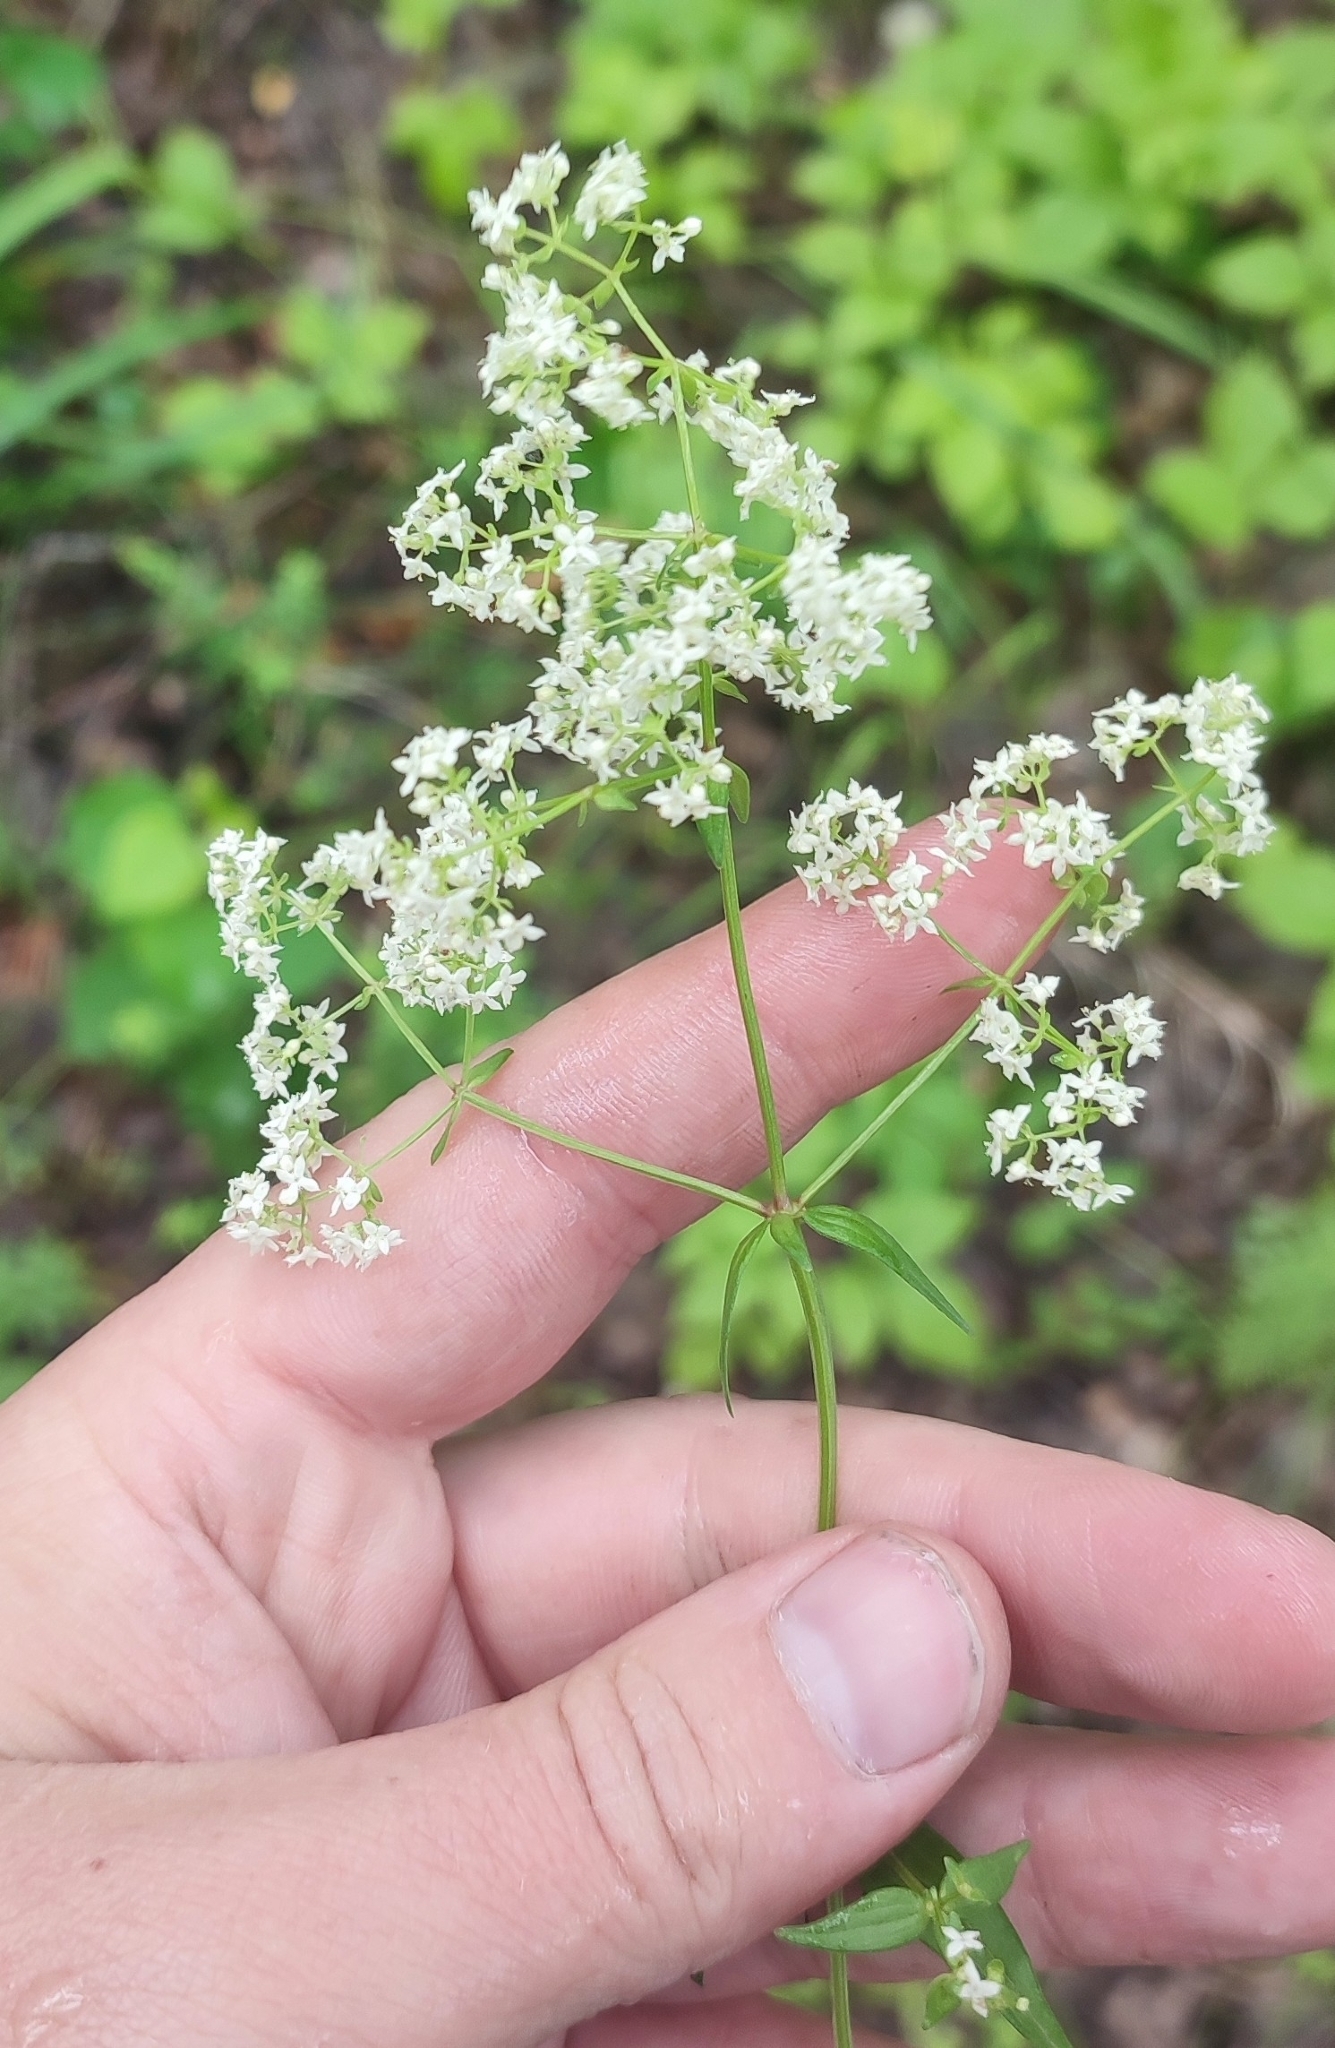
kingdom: Plantae
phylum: Tracheophyta
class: Magnoliopsida
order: Gentianales
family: Rubiaceae
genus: Galium
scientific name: Galium boreale
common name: Northern bedstraw
